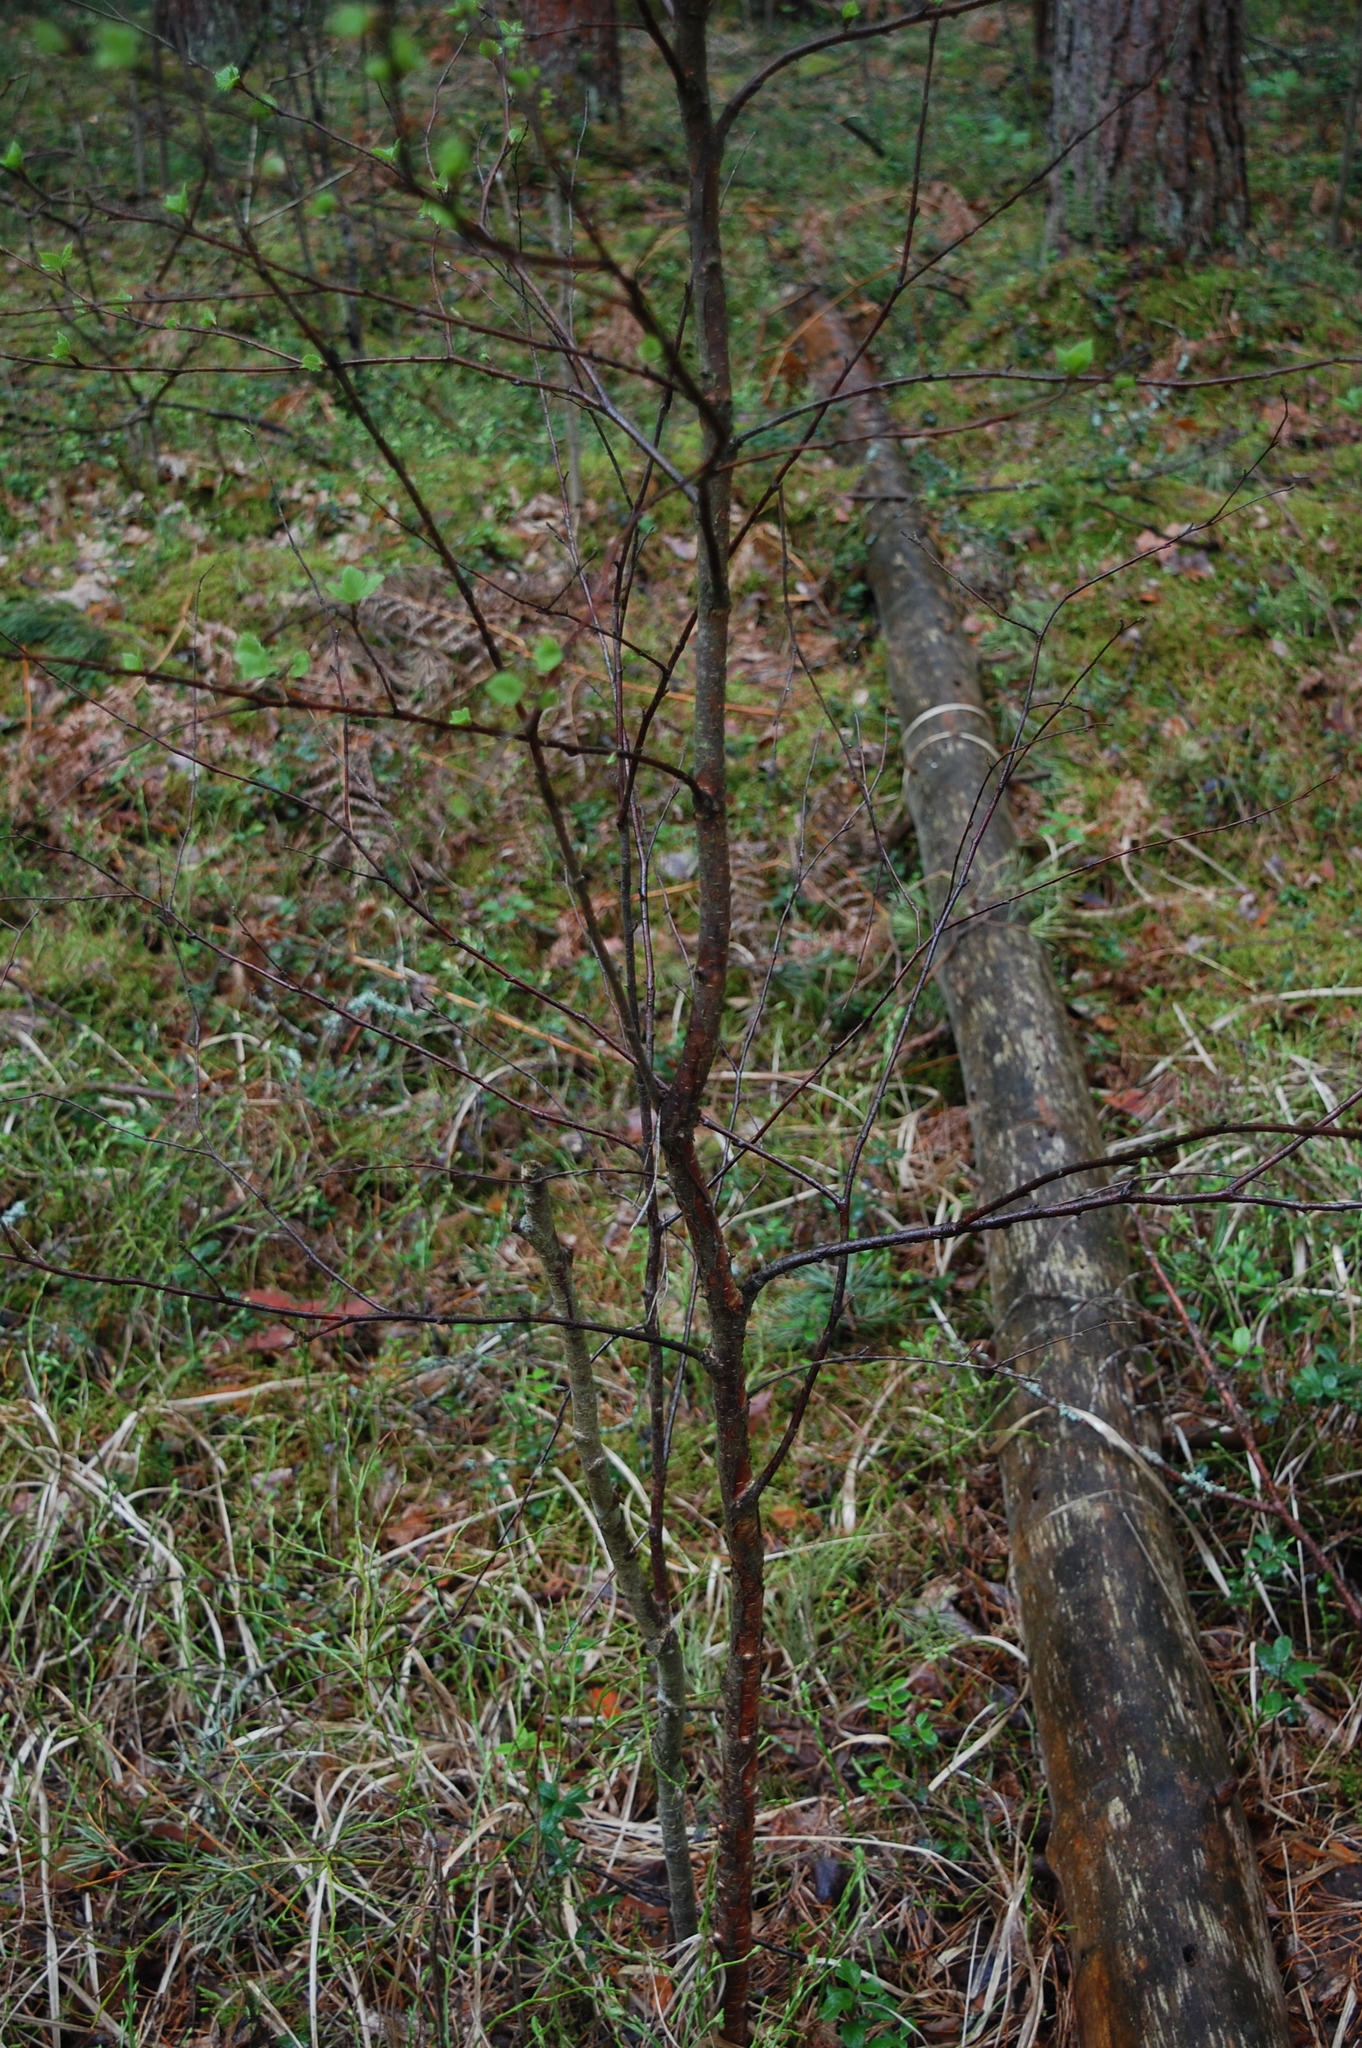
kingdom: Plantae
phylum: Tracheophyta
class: Magnoliopsida
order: Fagales
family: Betulaceae
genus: Betula
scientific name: Betula pendula
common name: Silver birch
